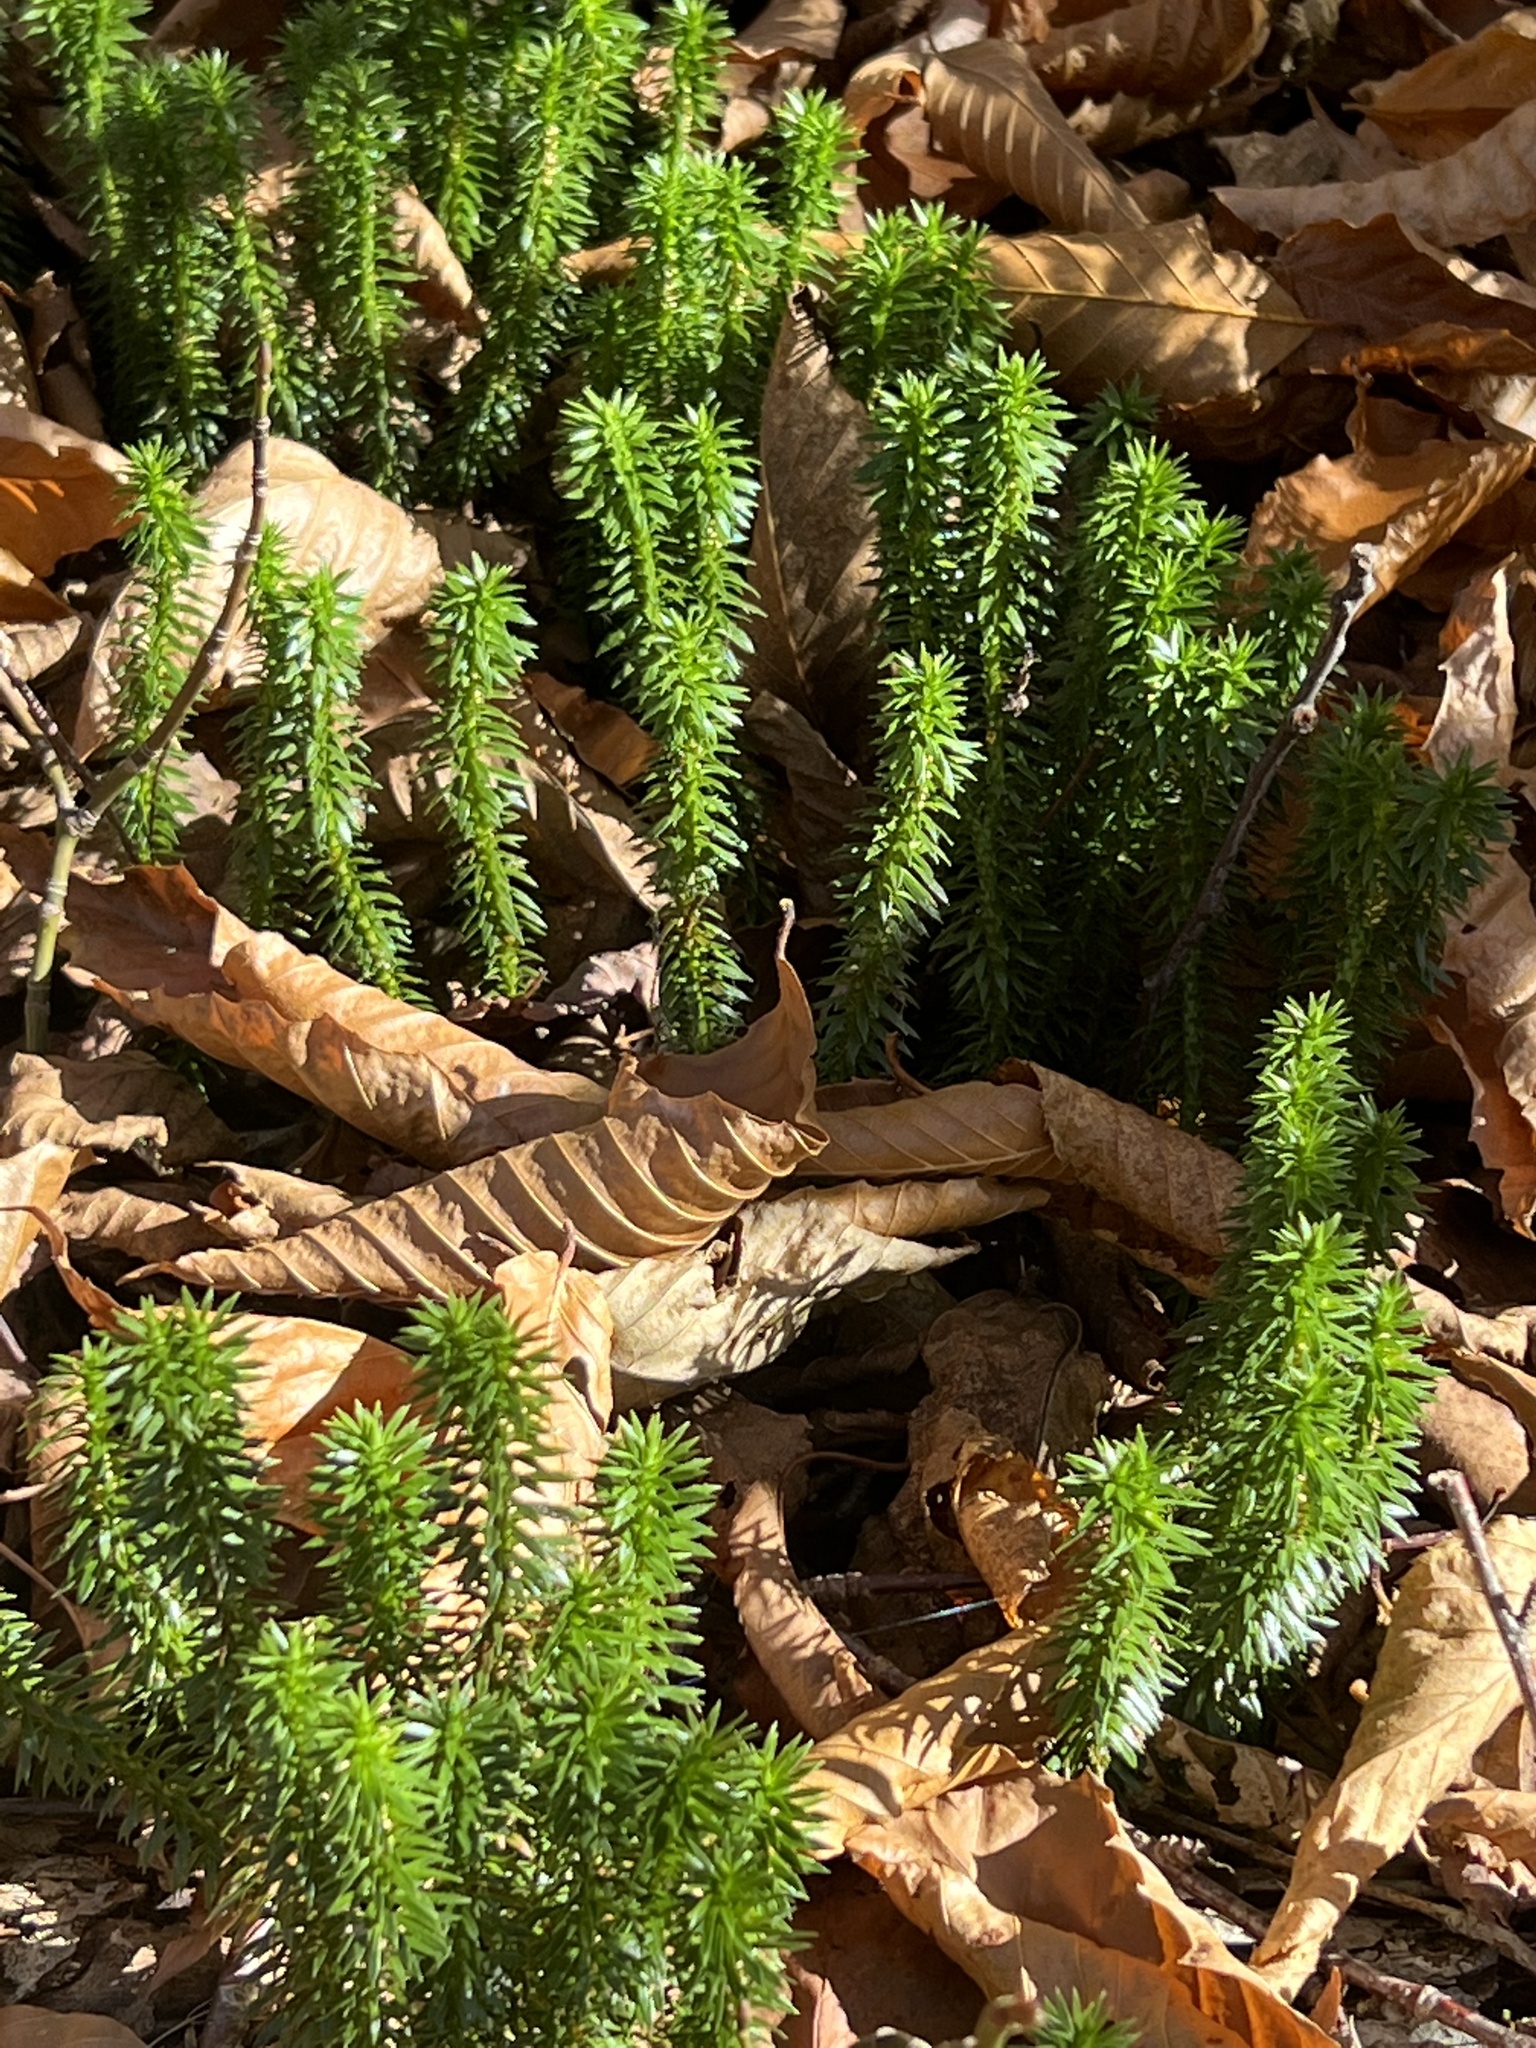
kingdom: Plantae
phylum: Tracheophyta
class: Lycopodiopsida
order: Lycopodiales
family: Lycopodiaceae
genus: Huperzia
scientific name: Huperzia lucidula
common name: Shining clubmoss
